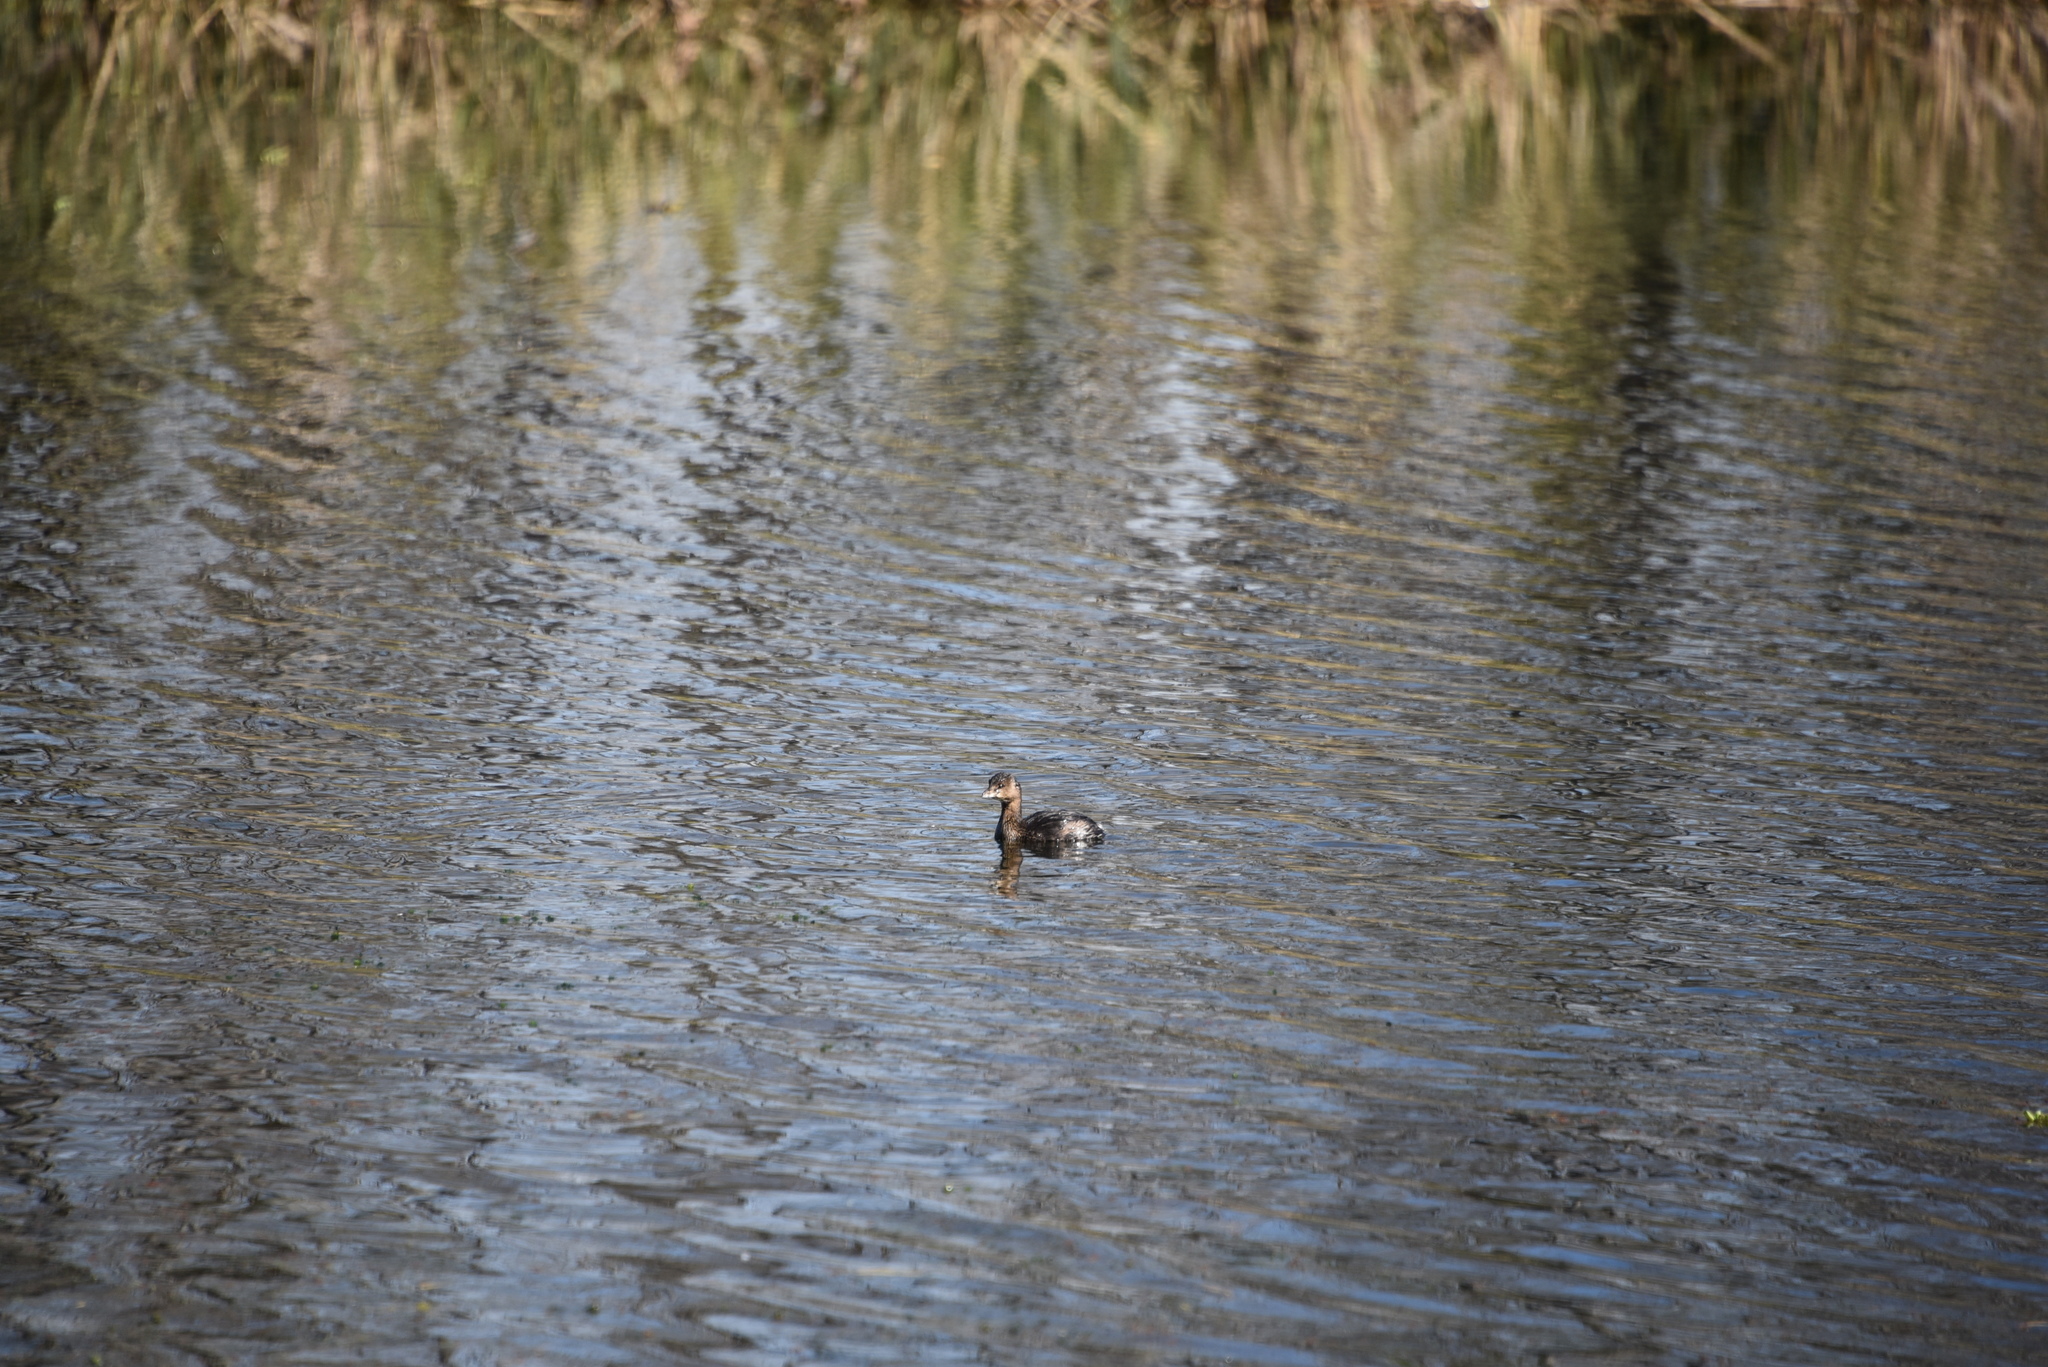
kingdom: Animalia
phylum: Chordata
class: Aves
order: Podicipediformes
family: Podicipedidae
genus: Podilymbus
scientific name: Podilymbus podiceps
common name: Pied-billed grebe
